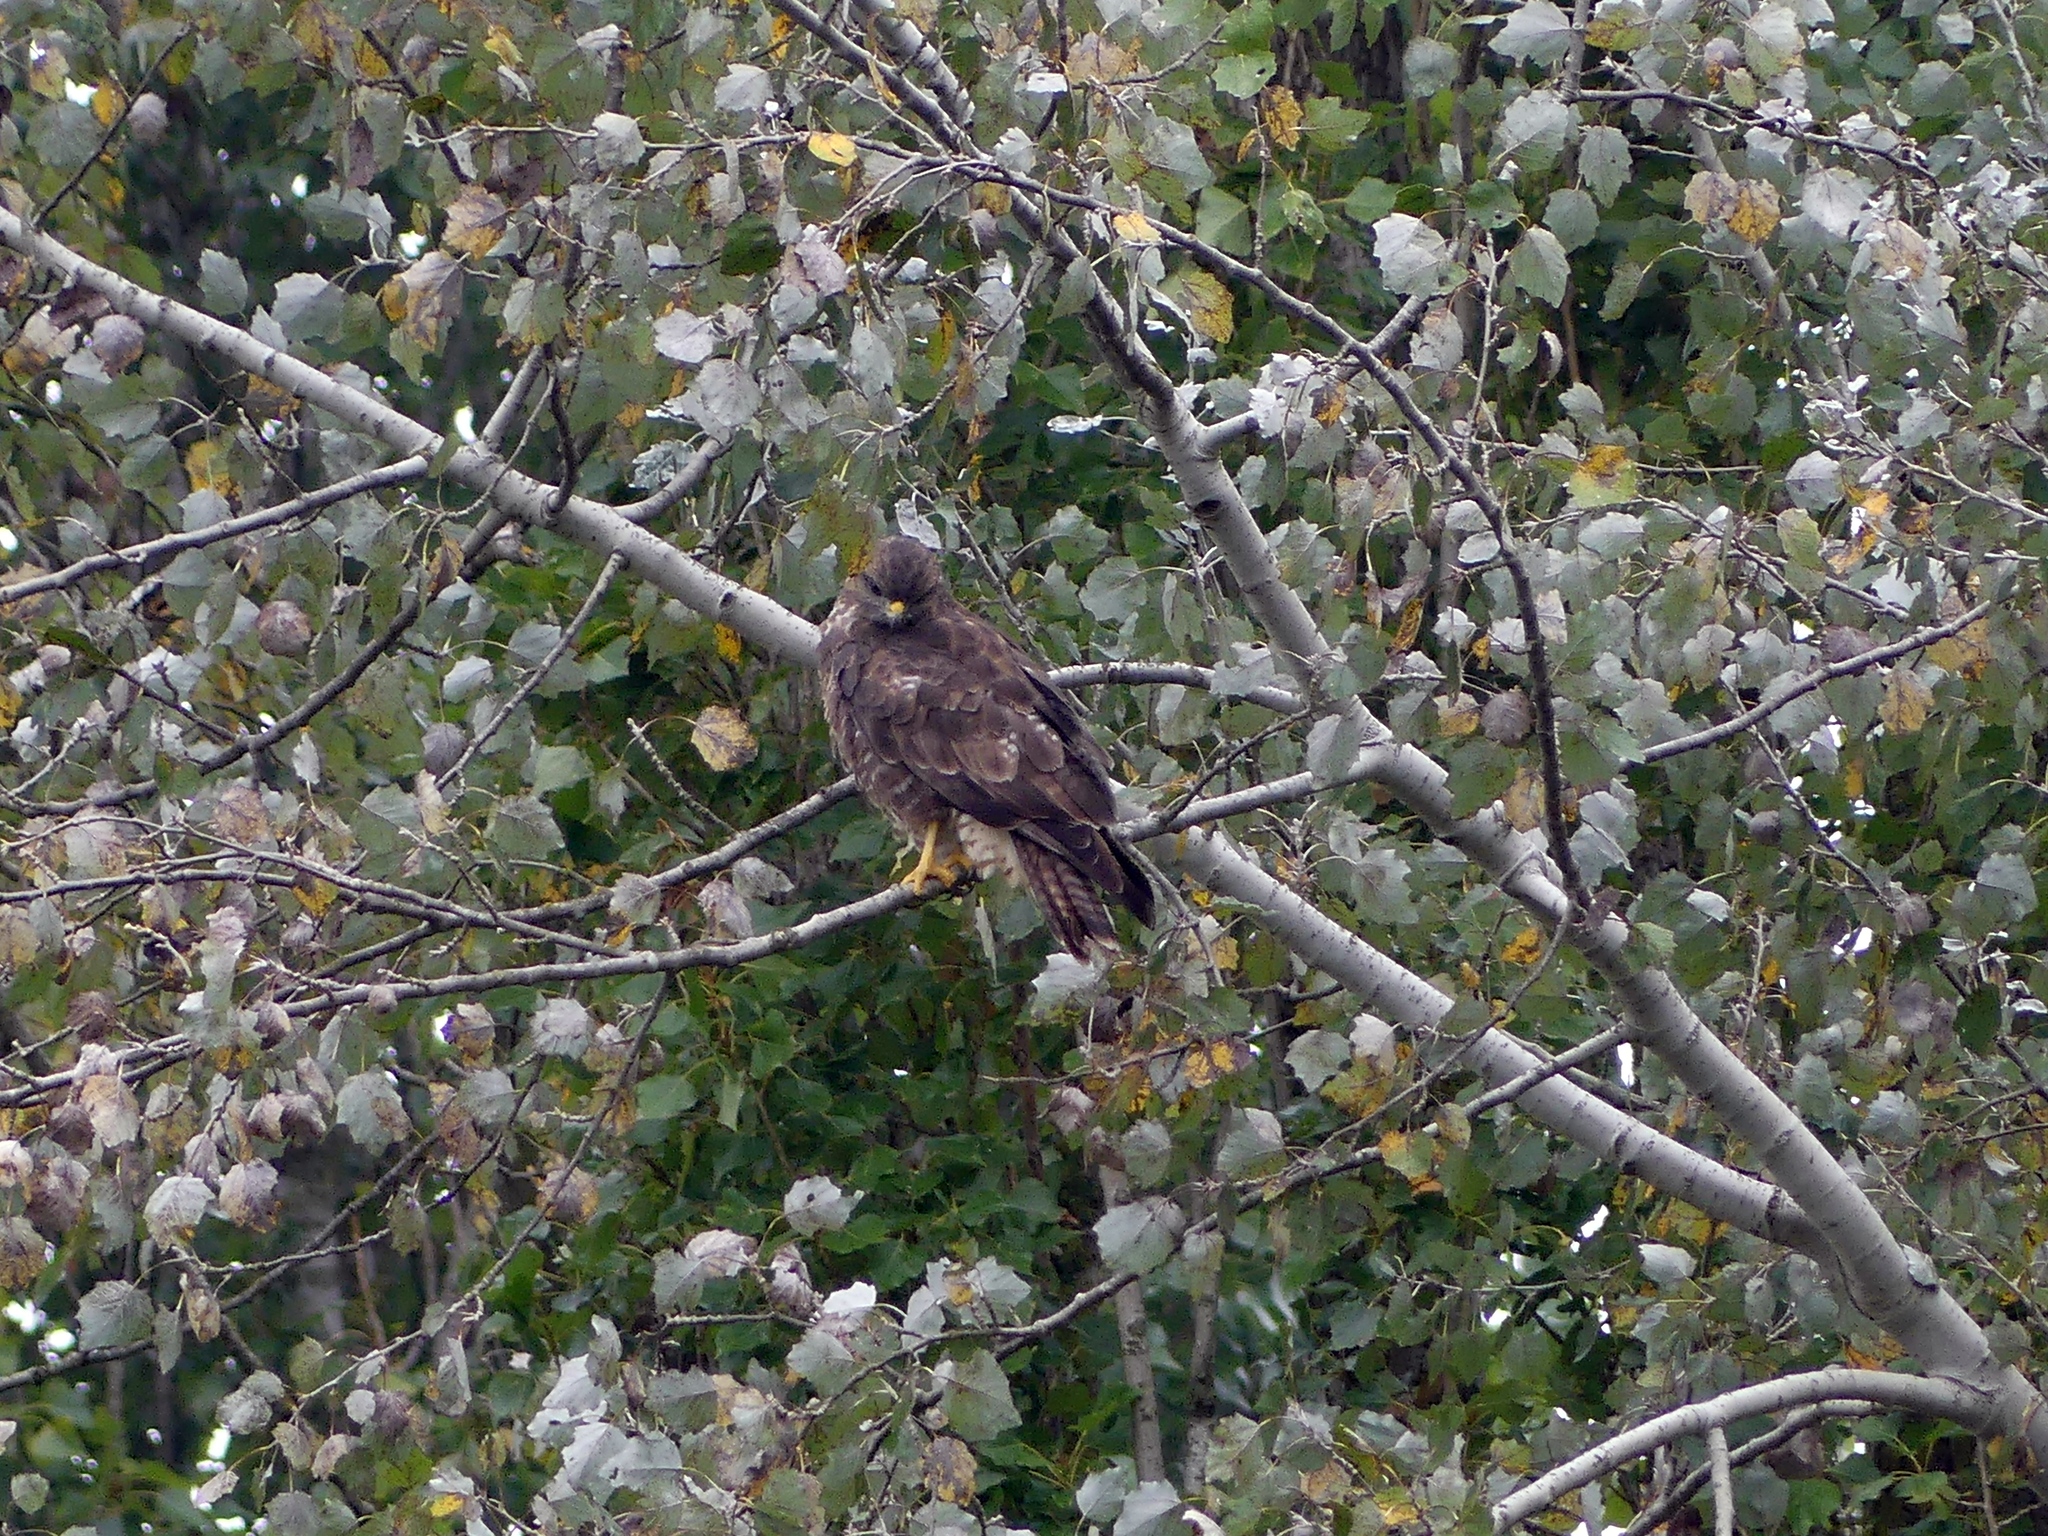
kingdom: Animalia
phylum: Chordata
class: Aves
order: Accipitriformes
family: Accipitridae
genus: Buteo
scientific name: Buteo buteo
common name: Common buzzard
